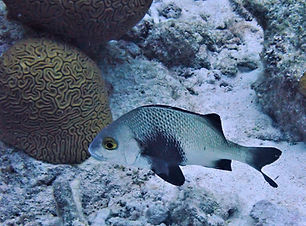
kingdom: Animalia
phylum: Chordata
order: Perciformes
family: Haemulidae
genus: Anisotremus
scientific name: Anisotremus surinamensis
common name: Black margate
